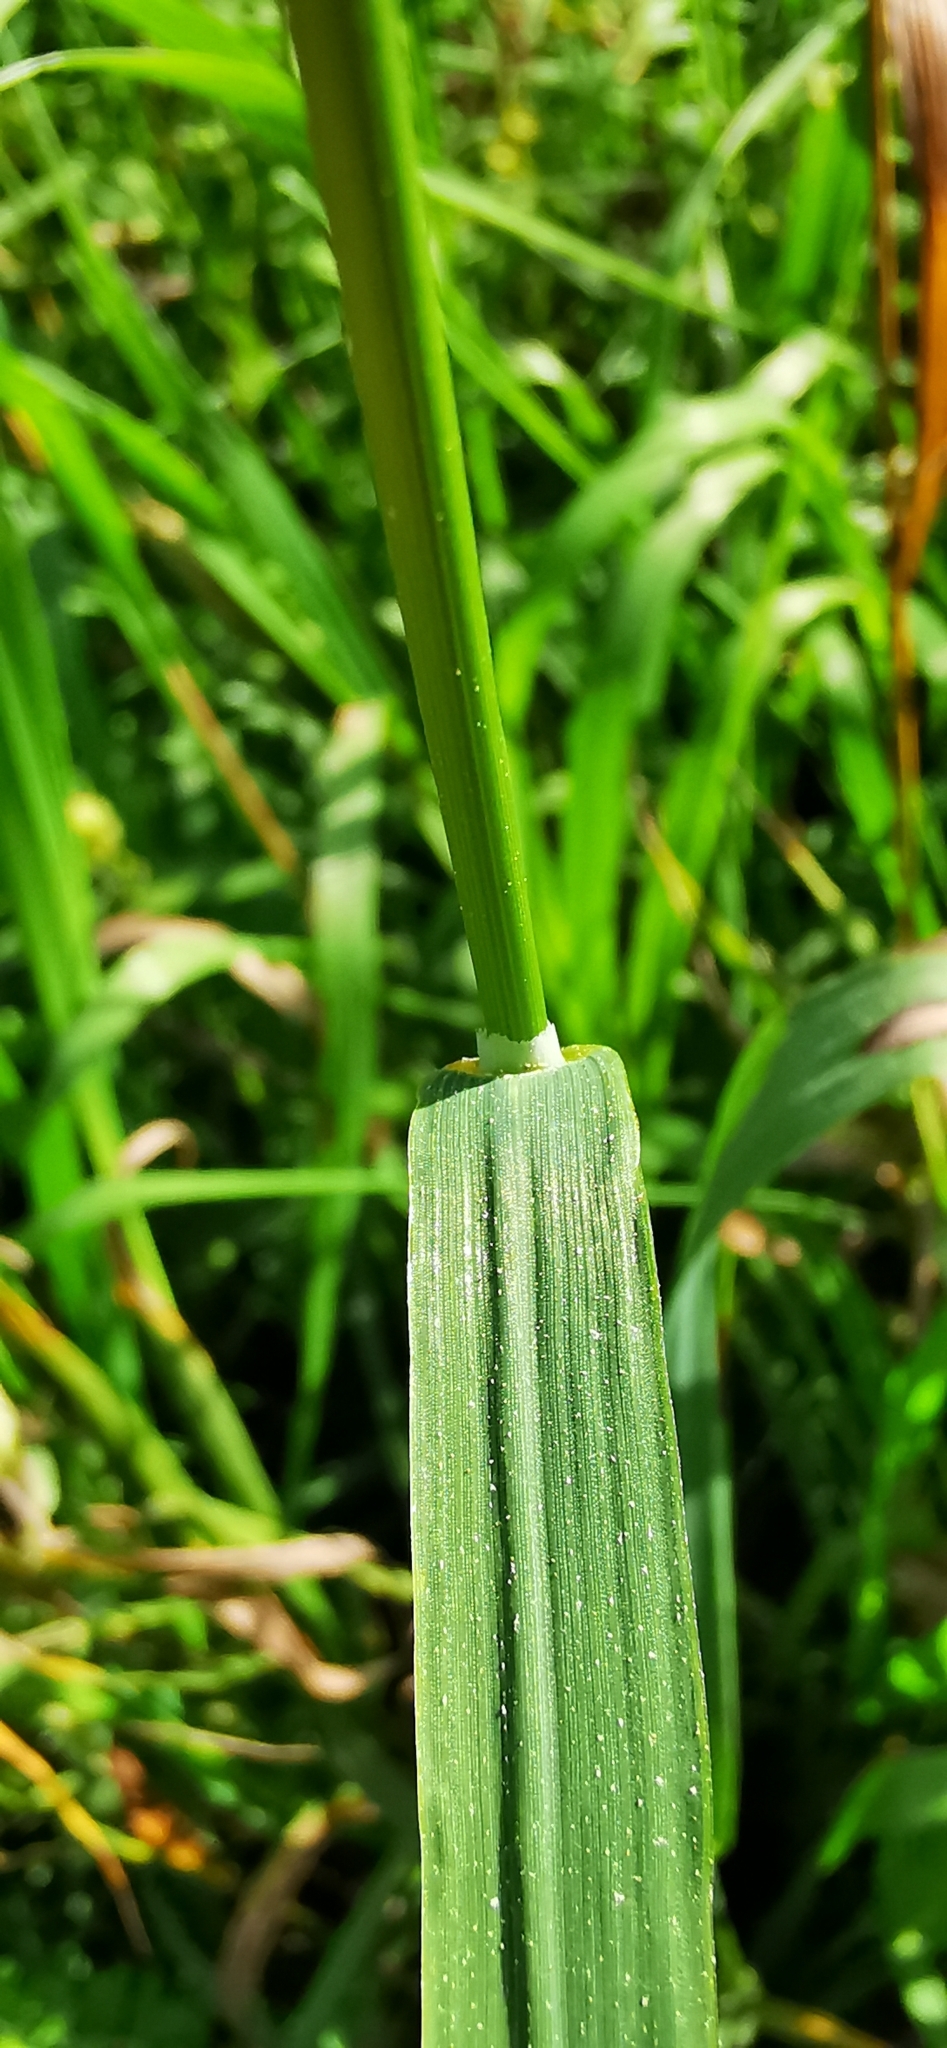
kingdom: Plantae
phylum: Tracheophyta
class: Liliopsida
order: Poales
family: Poaceae
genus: Bromus
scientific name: Bromus inermis
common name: Smooth brome
